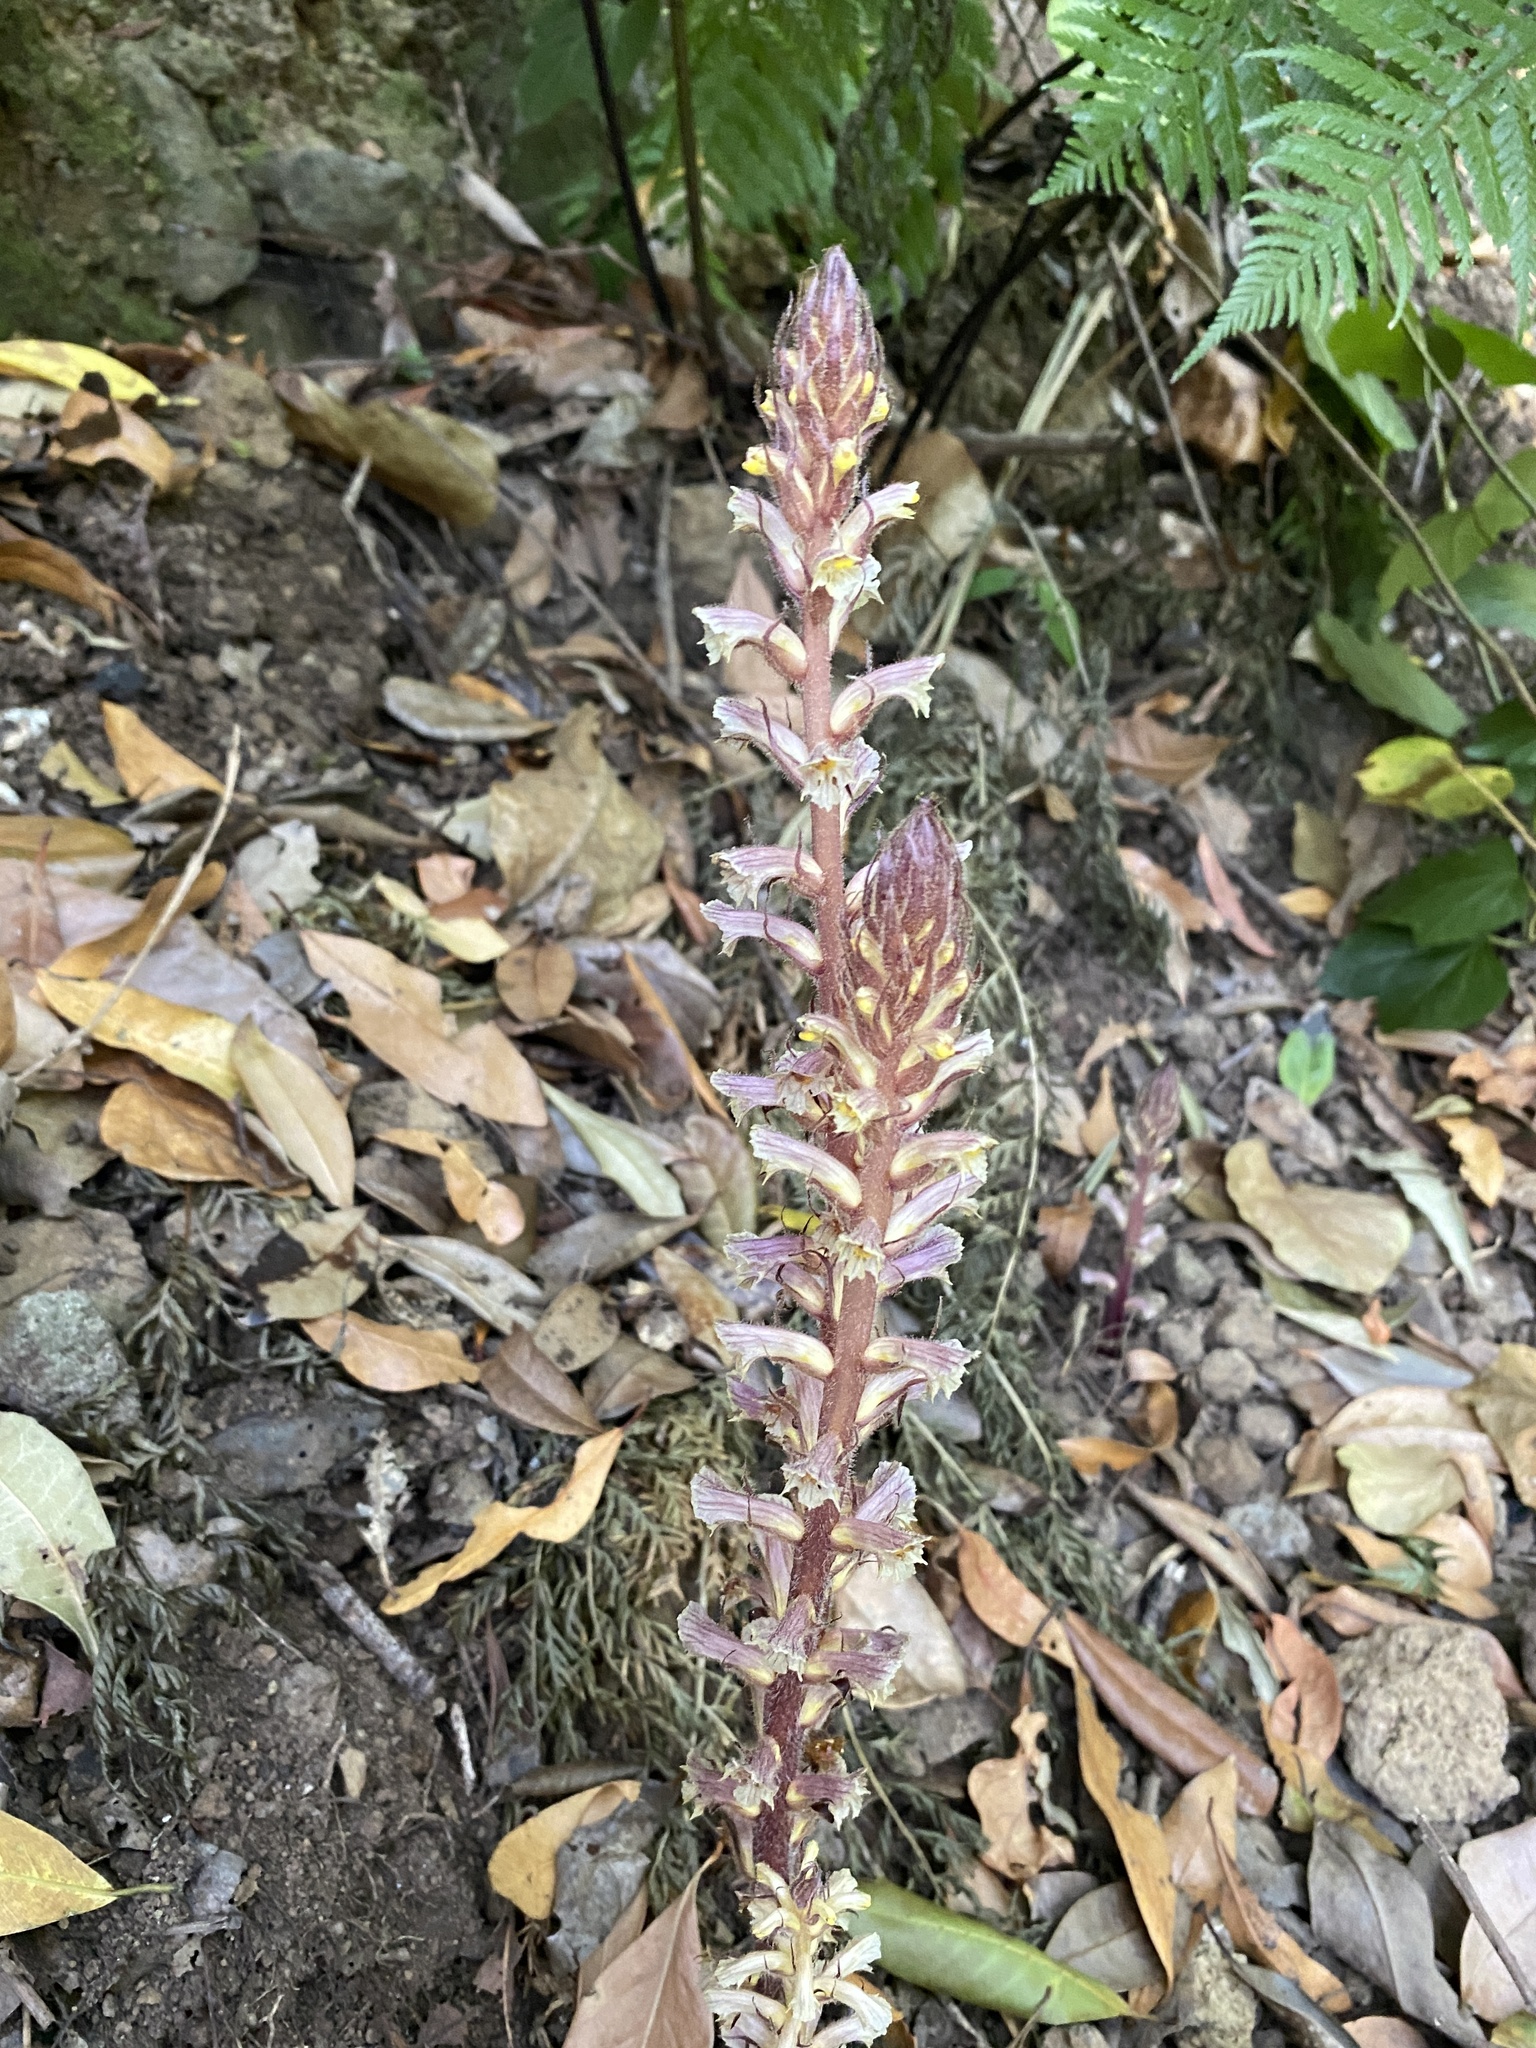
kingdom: Plantae
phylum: Tracheophyta
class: Magnoliopsida
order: Lamiales
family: Orobanchaceae
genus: Orobanche
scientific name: Orobanche hederae
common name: Ivy broomrape
